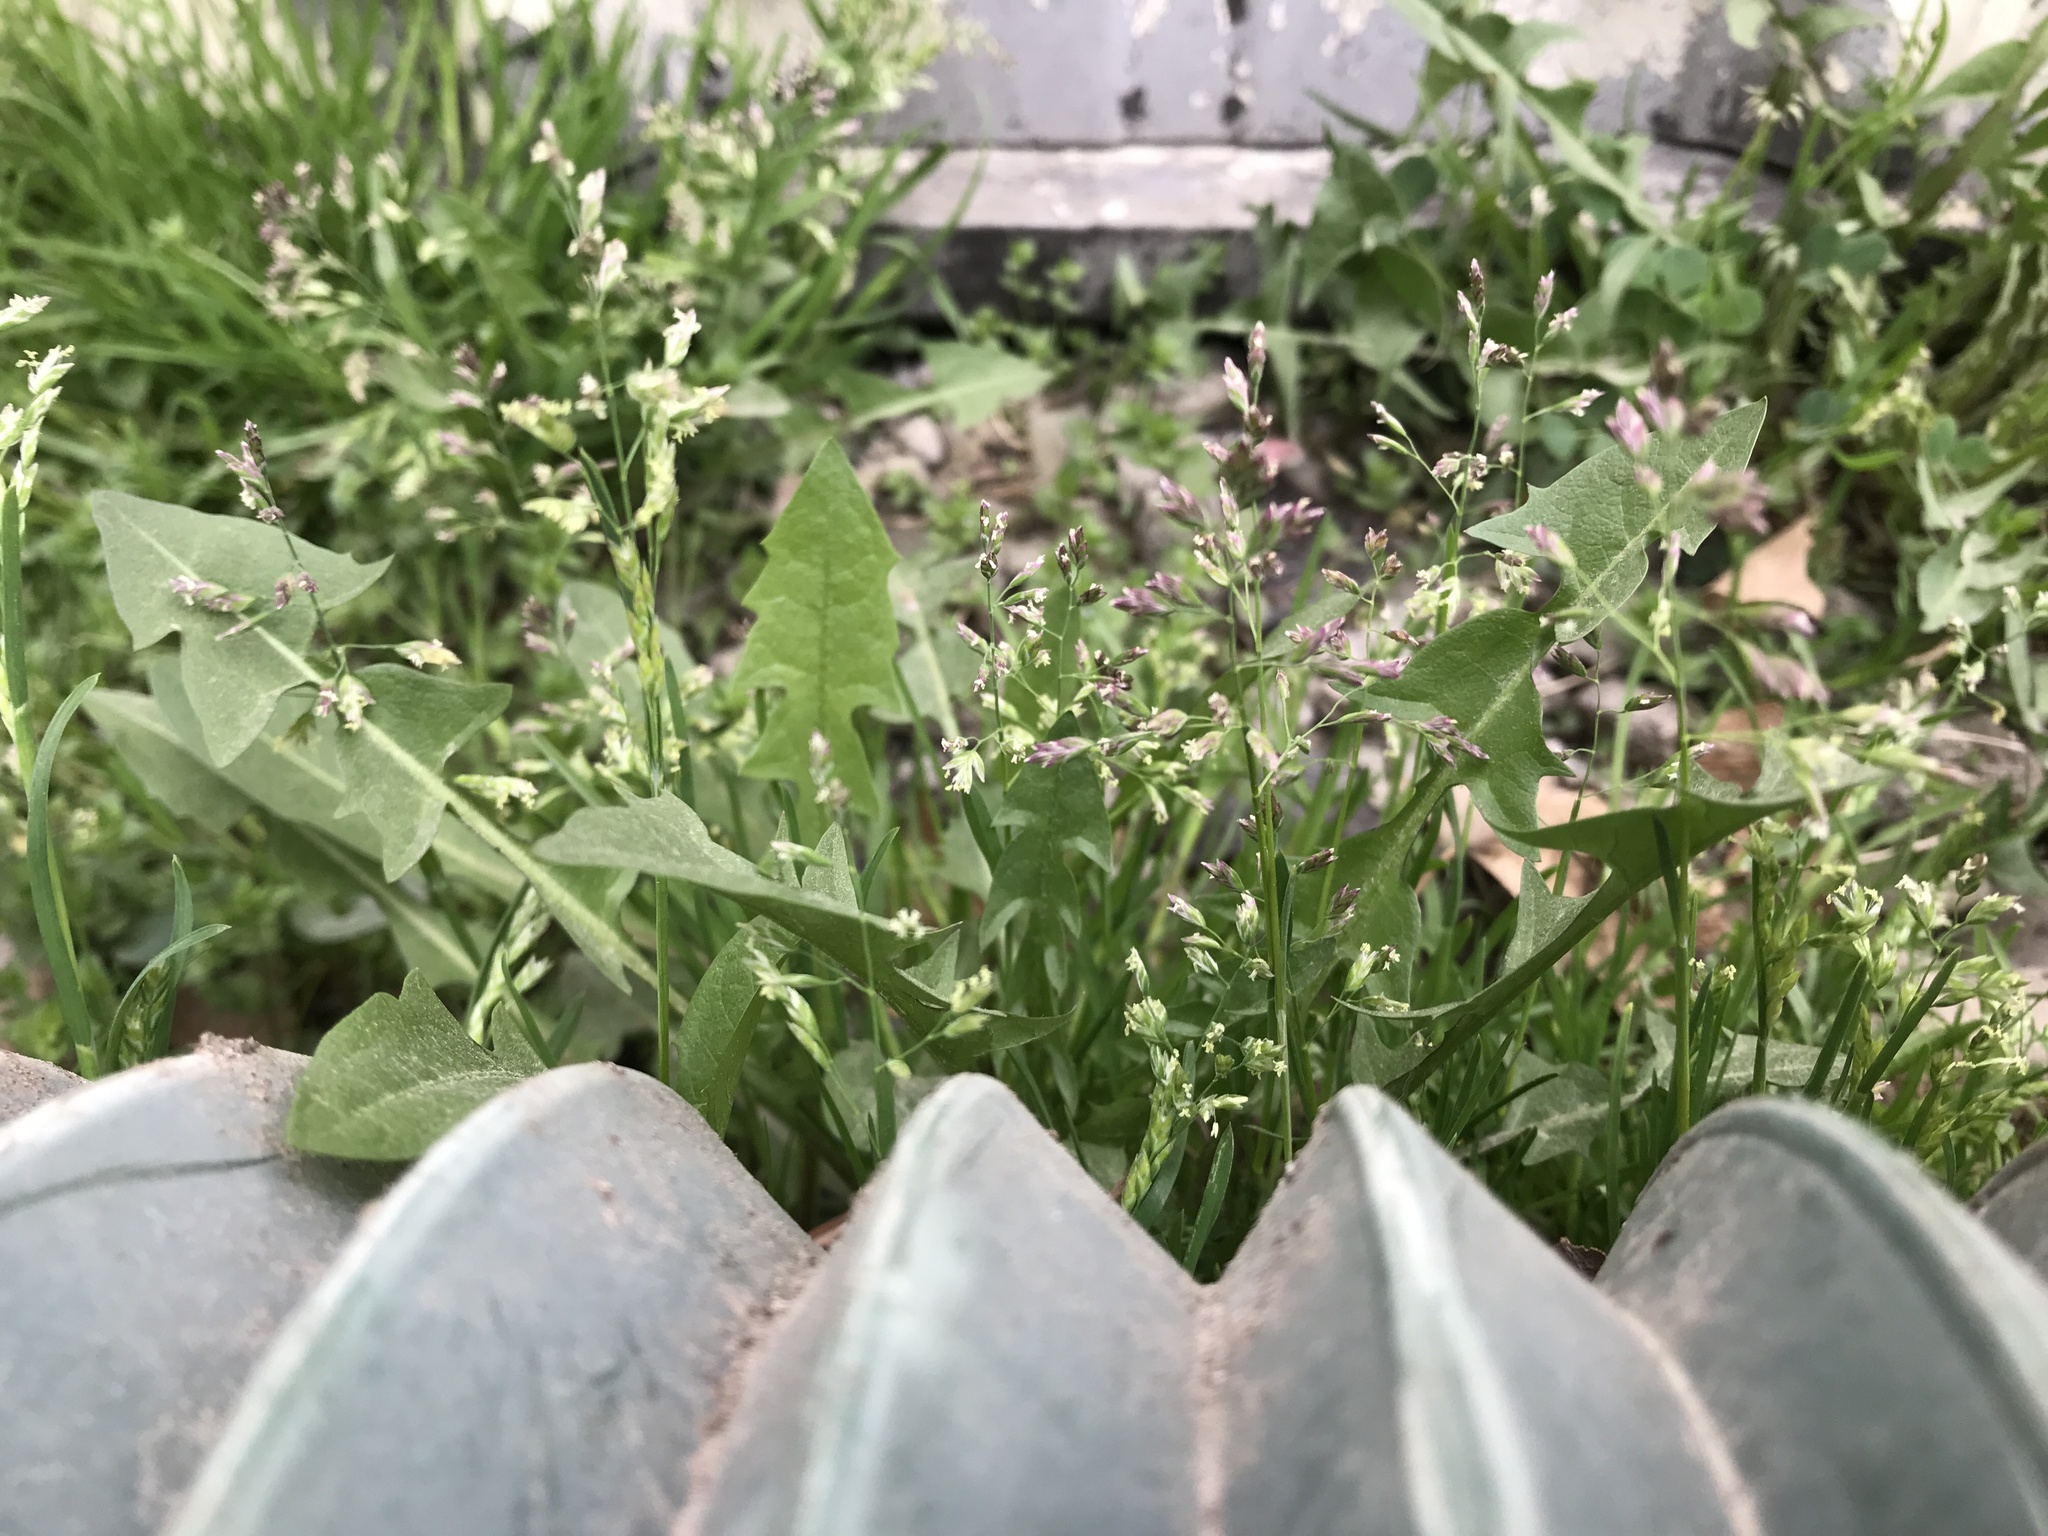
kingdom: Plantae
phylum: Tracheophyta
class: Liliopsida
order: Poales
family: Poaceae
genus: Poa
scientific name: Poa annua
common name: Annual bluegrass
